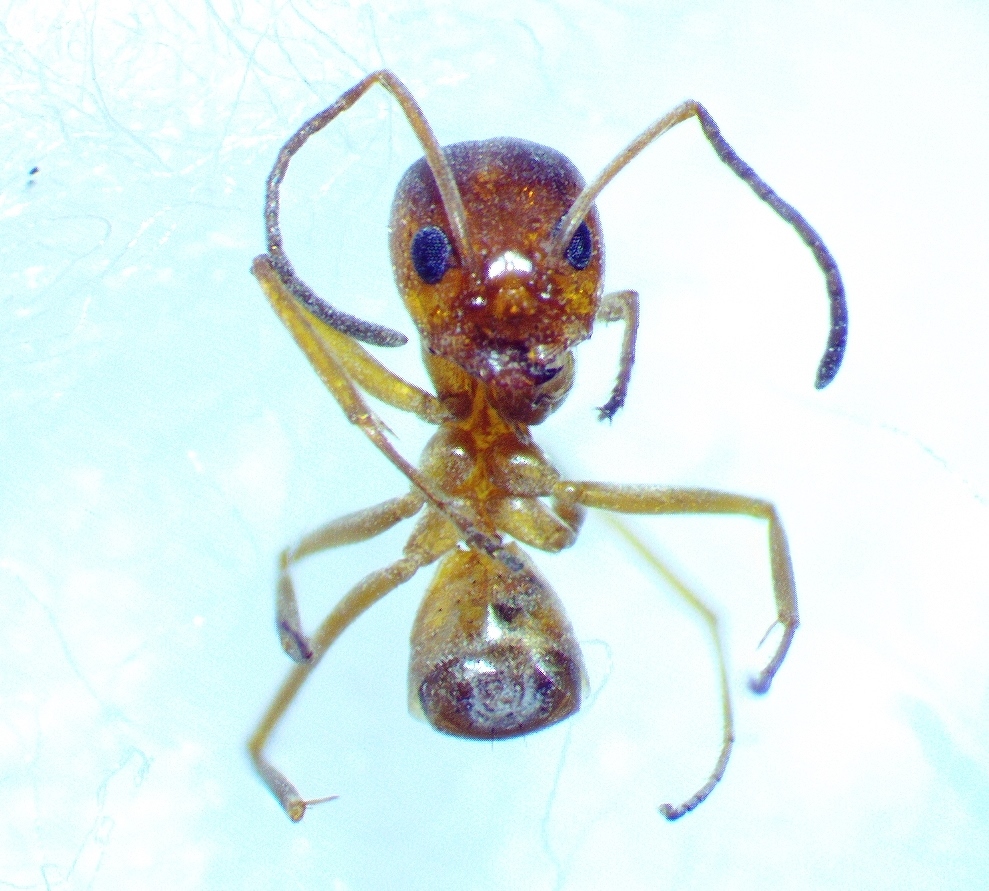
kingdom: Animalia
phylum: Arthropoda
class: Insecta
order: Hymenoptera
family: Formicidae
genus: Dorymyrmex
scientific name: Dorymyrmex bureni
